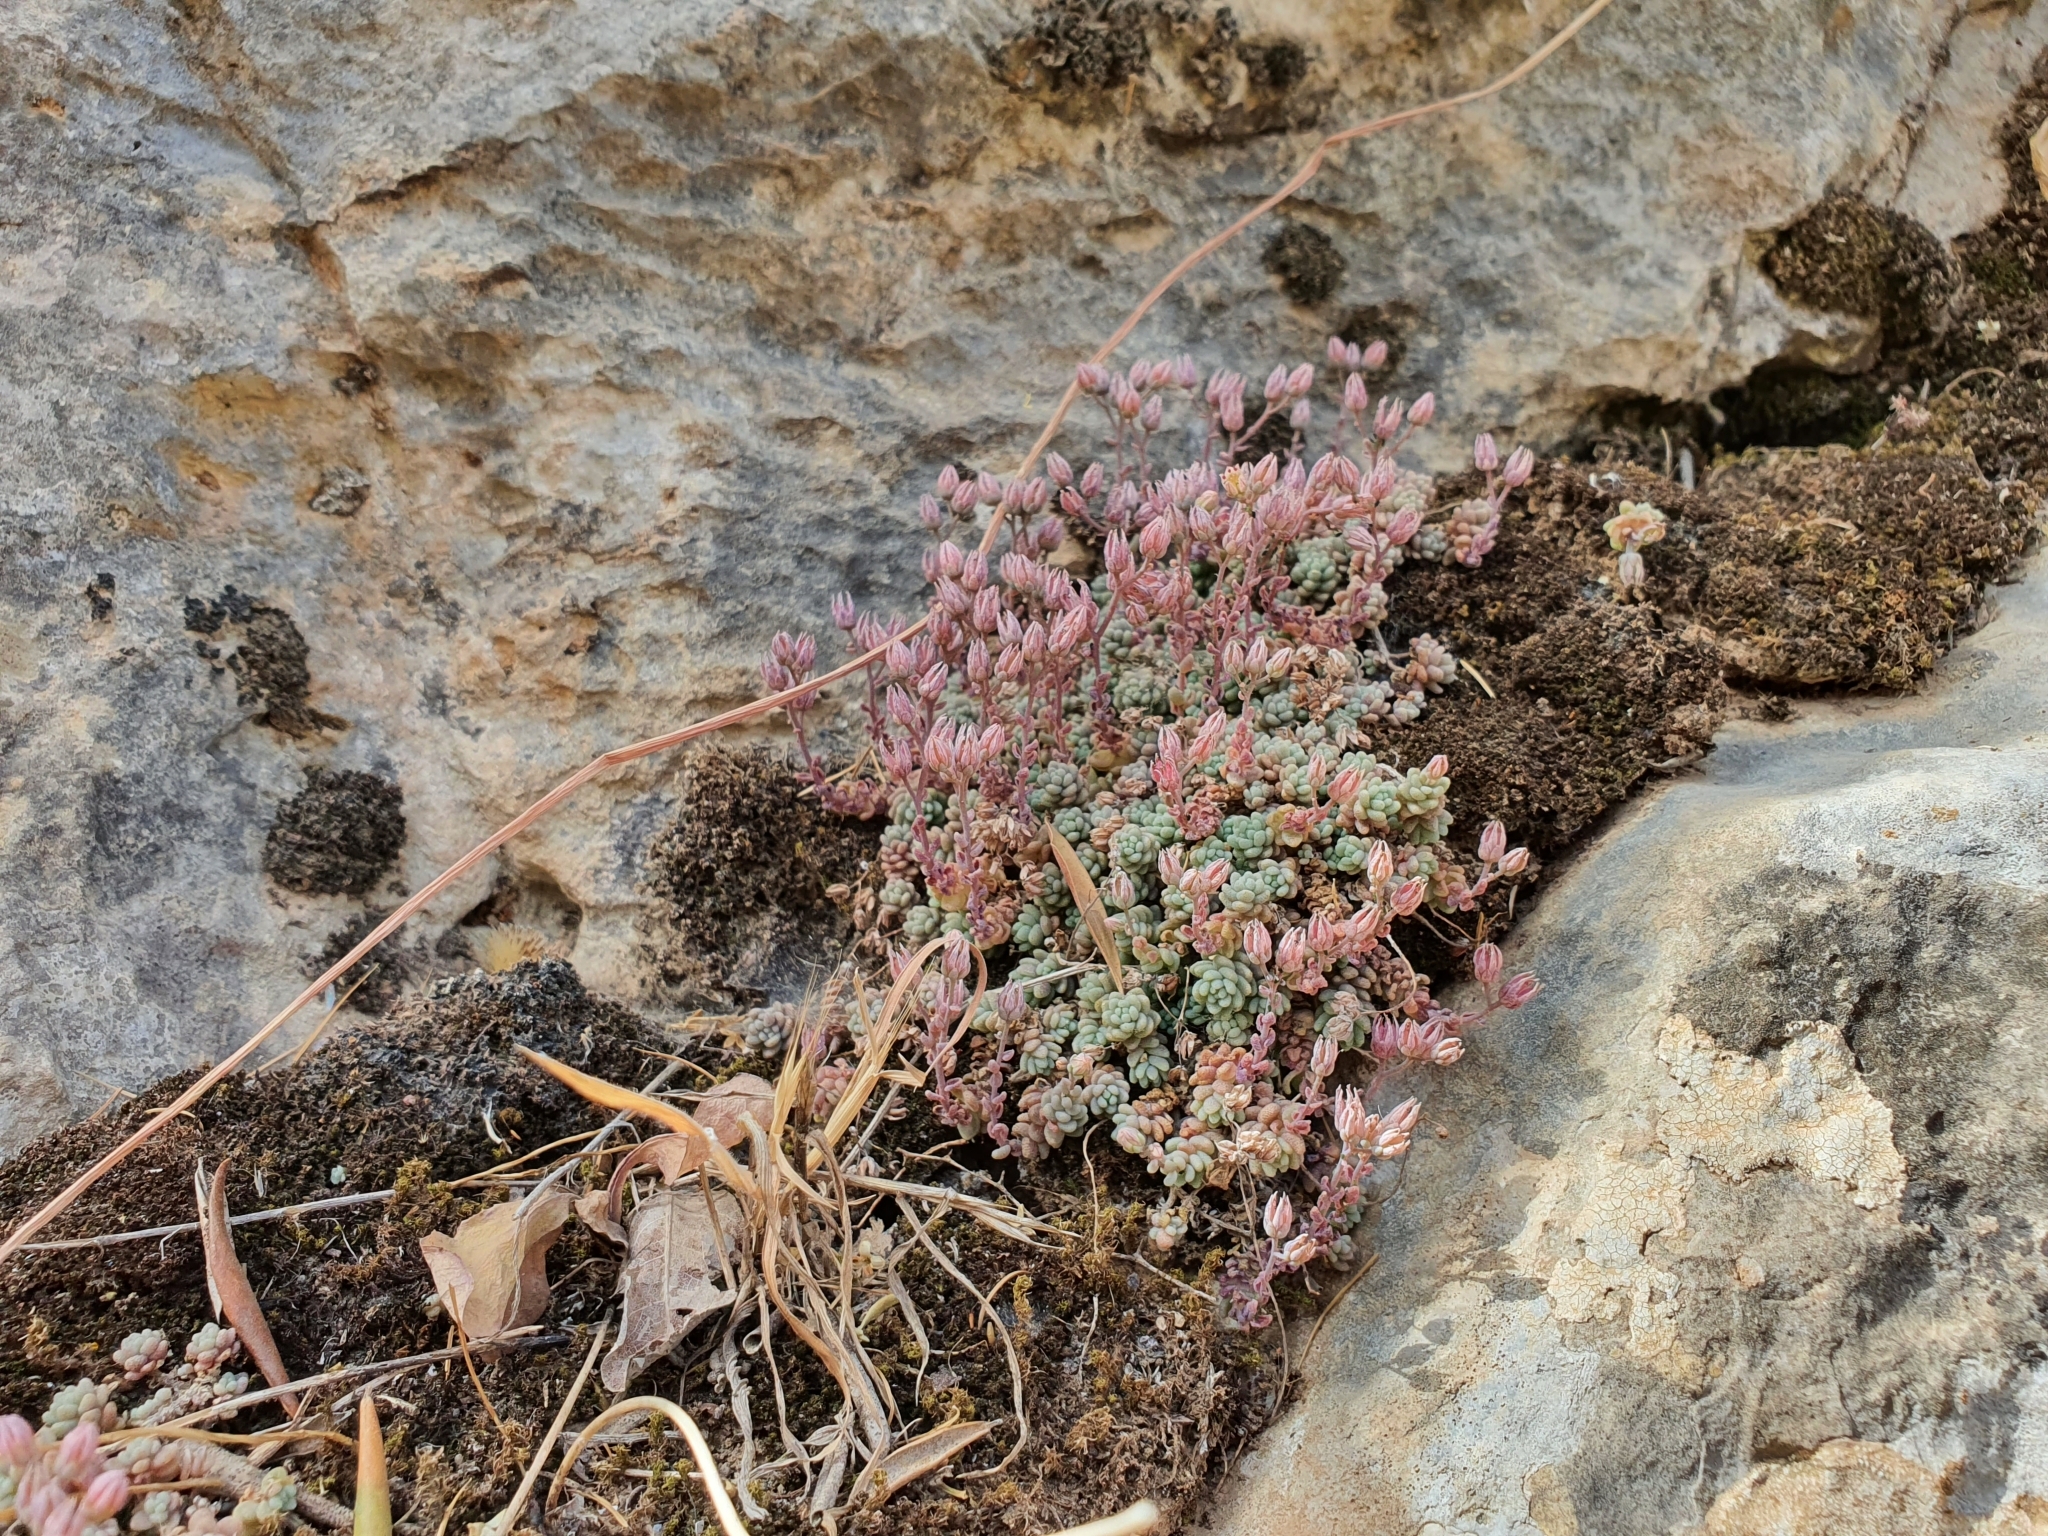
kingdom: Plantae
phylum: Tracheophyta
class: Magnoliopsida
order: Saxifragales
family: Crassulaceae
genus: Sedum
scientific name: Sedum dasyphyllum
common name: Thick-leaf stonecrop
